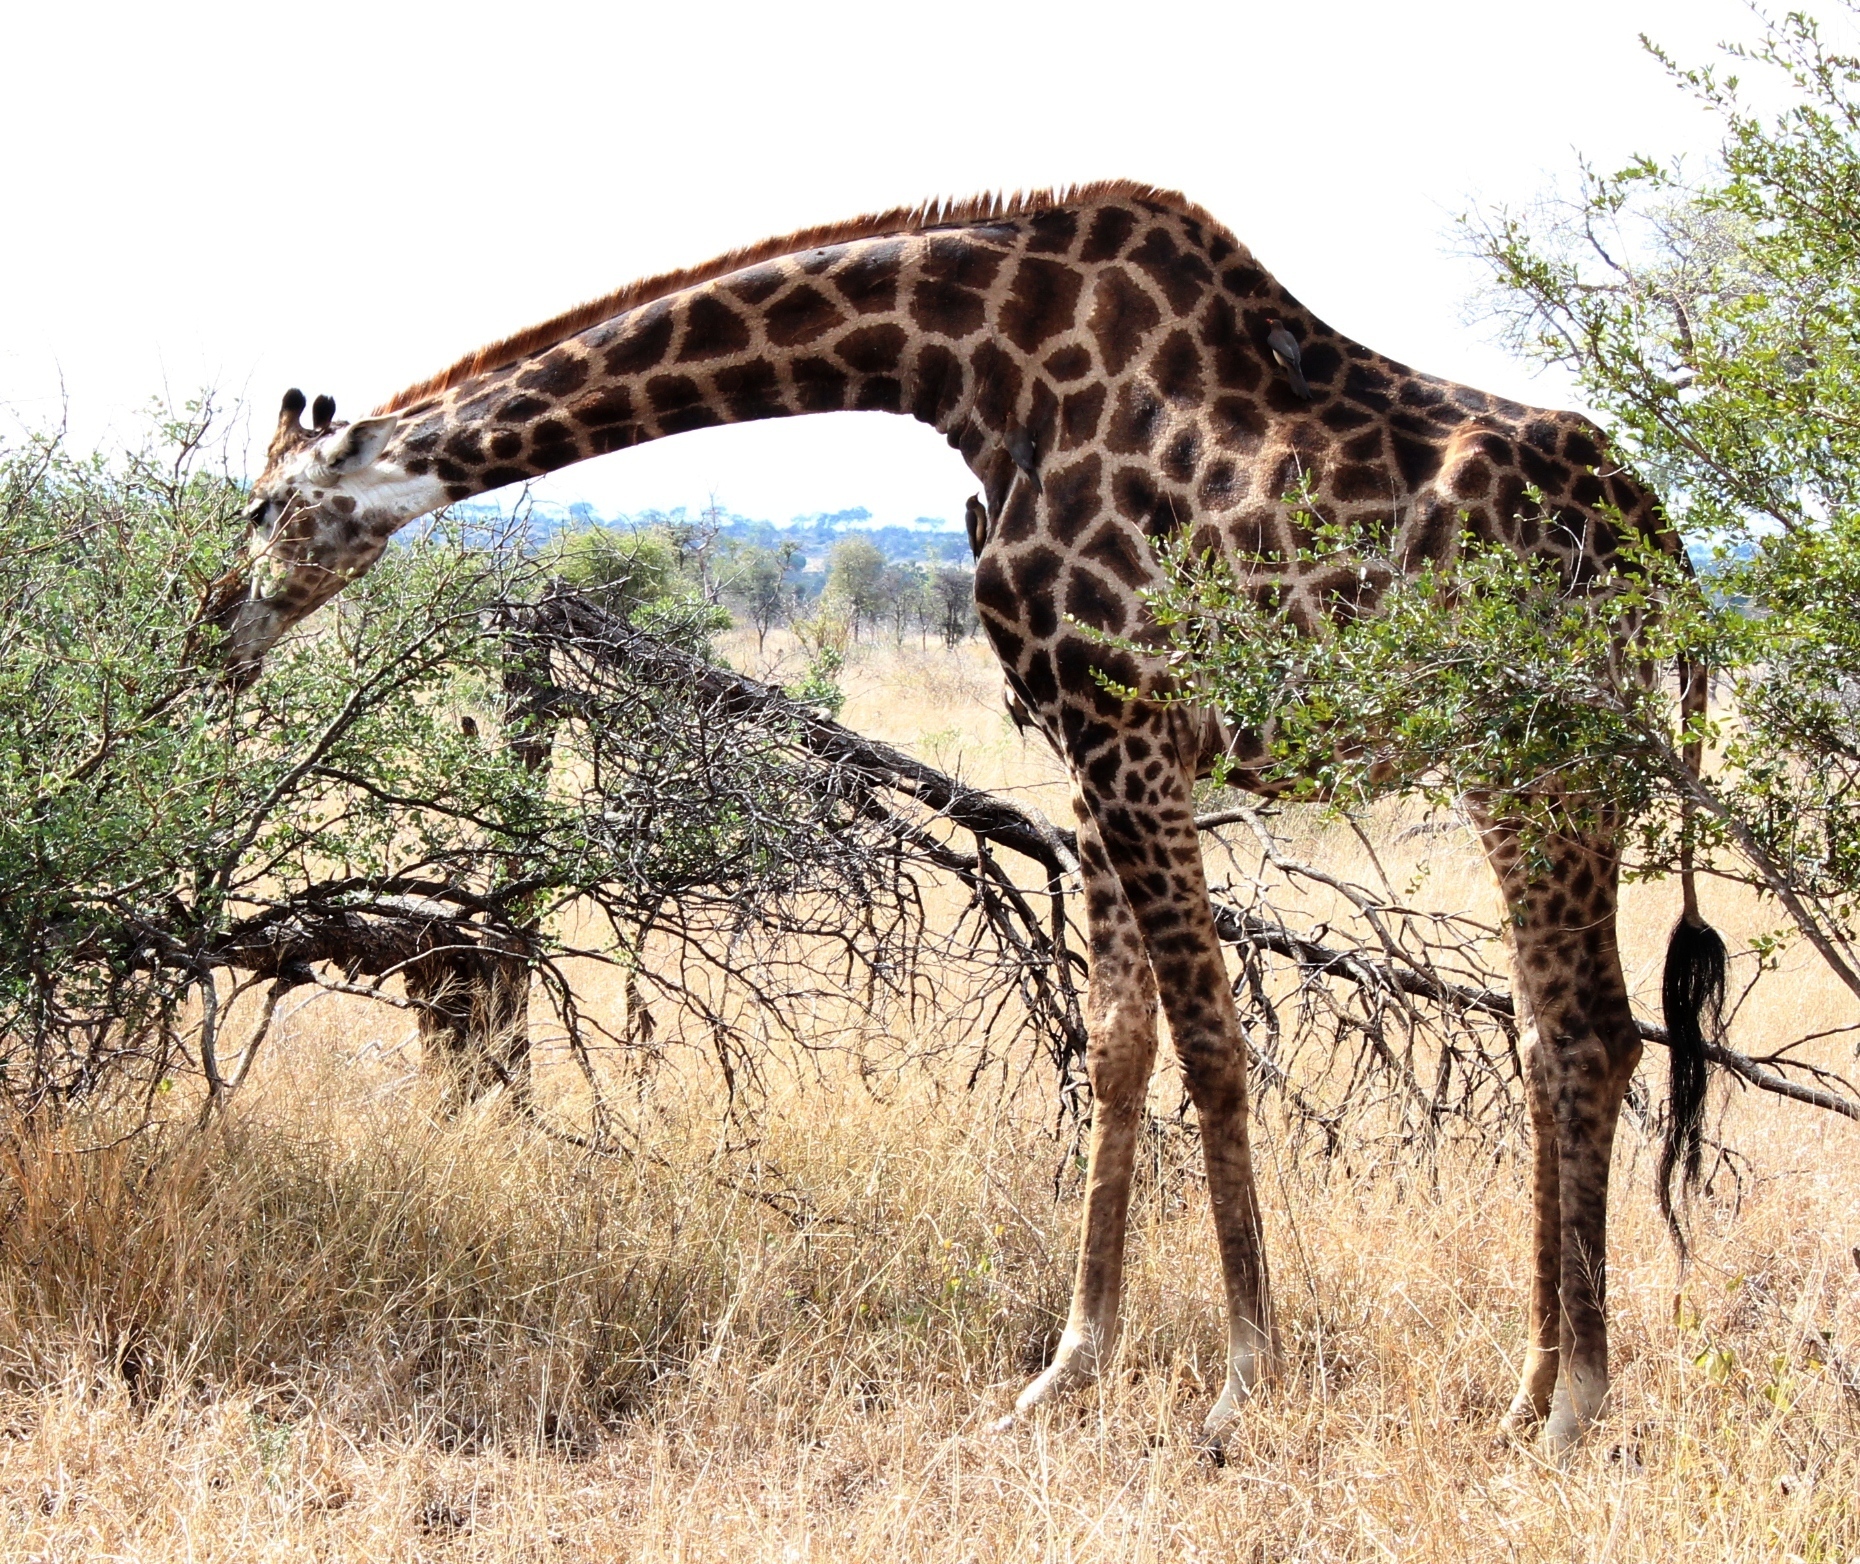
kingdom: Animalia
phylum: Chordata
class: Mammalia
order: Artiodactyla
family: Giraffidae
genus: Giraffa
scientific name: Giraffa giraffa
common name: Southern giraffe
